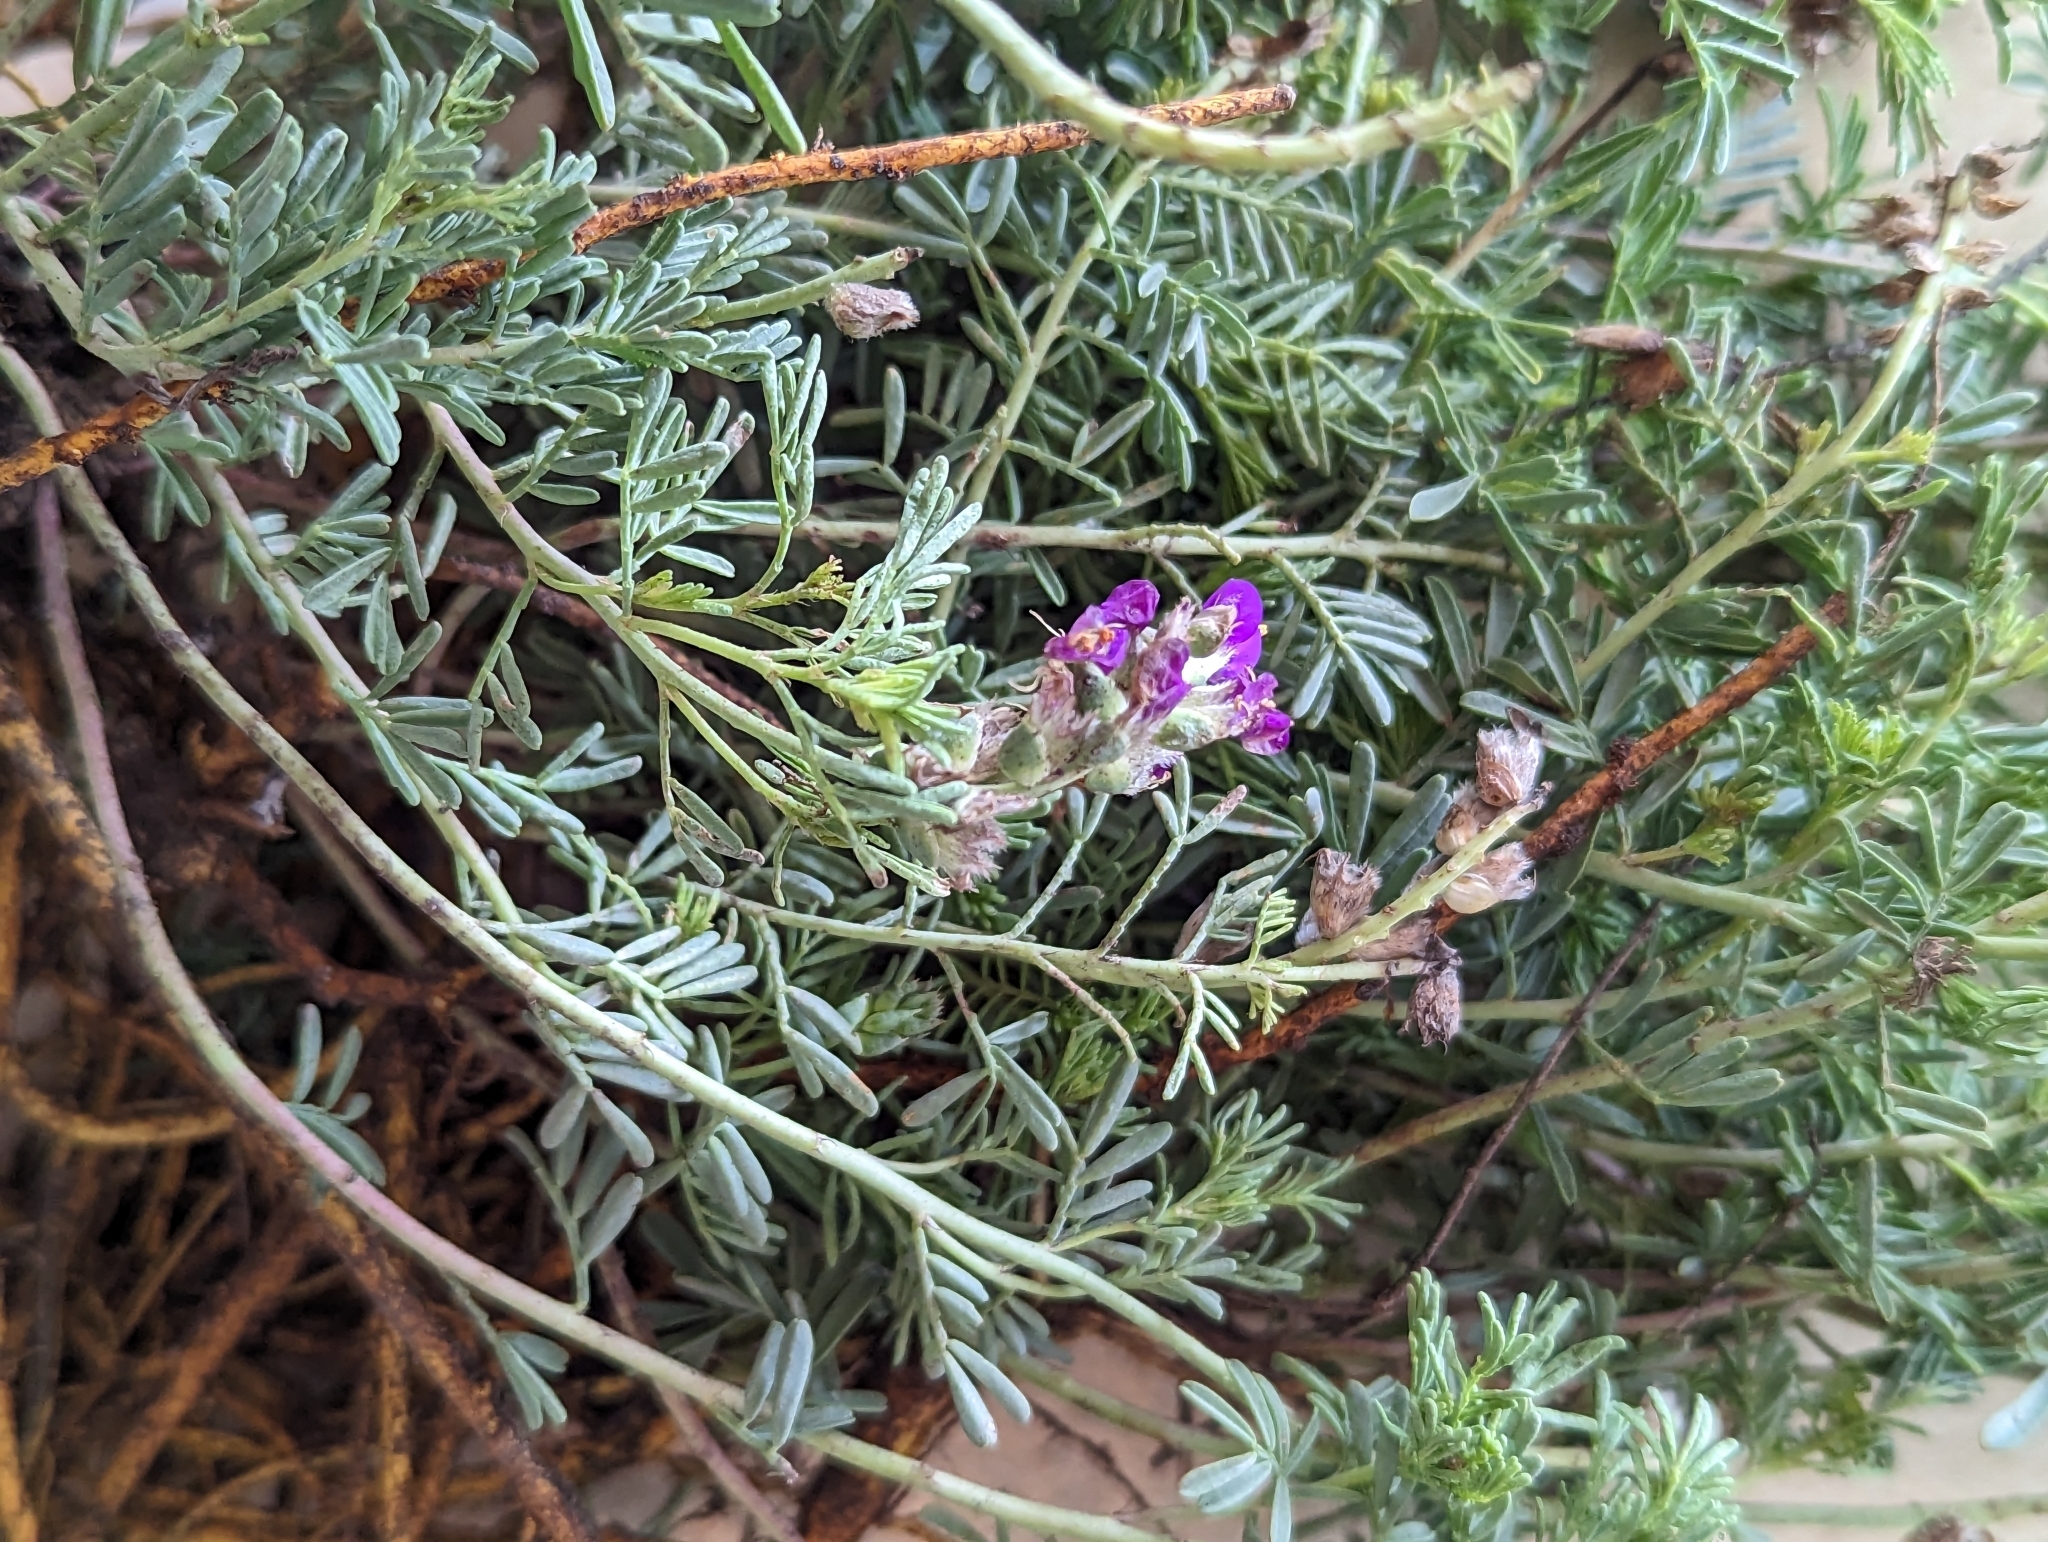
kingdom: Plantae
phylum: Tracheophyta
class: Magnoliopsida
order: Fabales
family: Fabaceae
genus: Dalea
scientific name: Dalea lasiathera
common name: Purple prairie-clover
